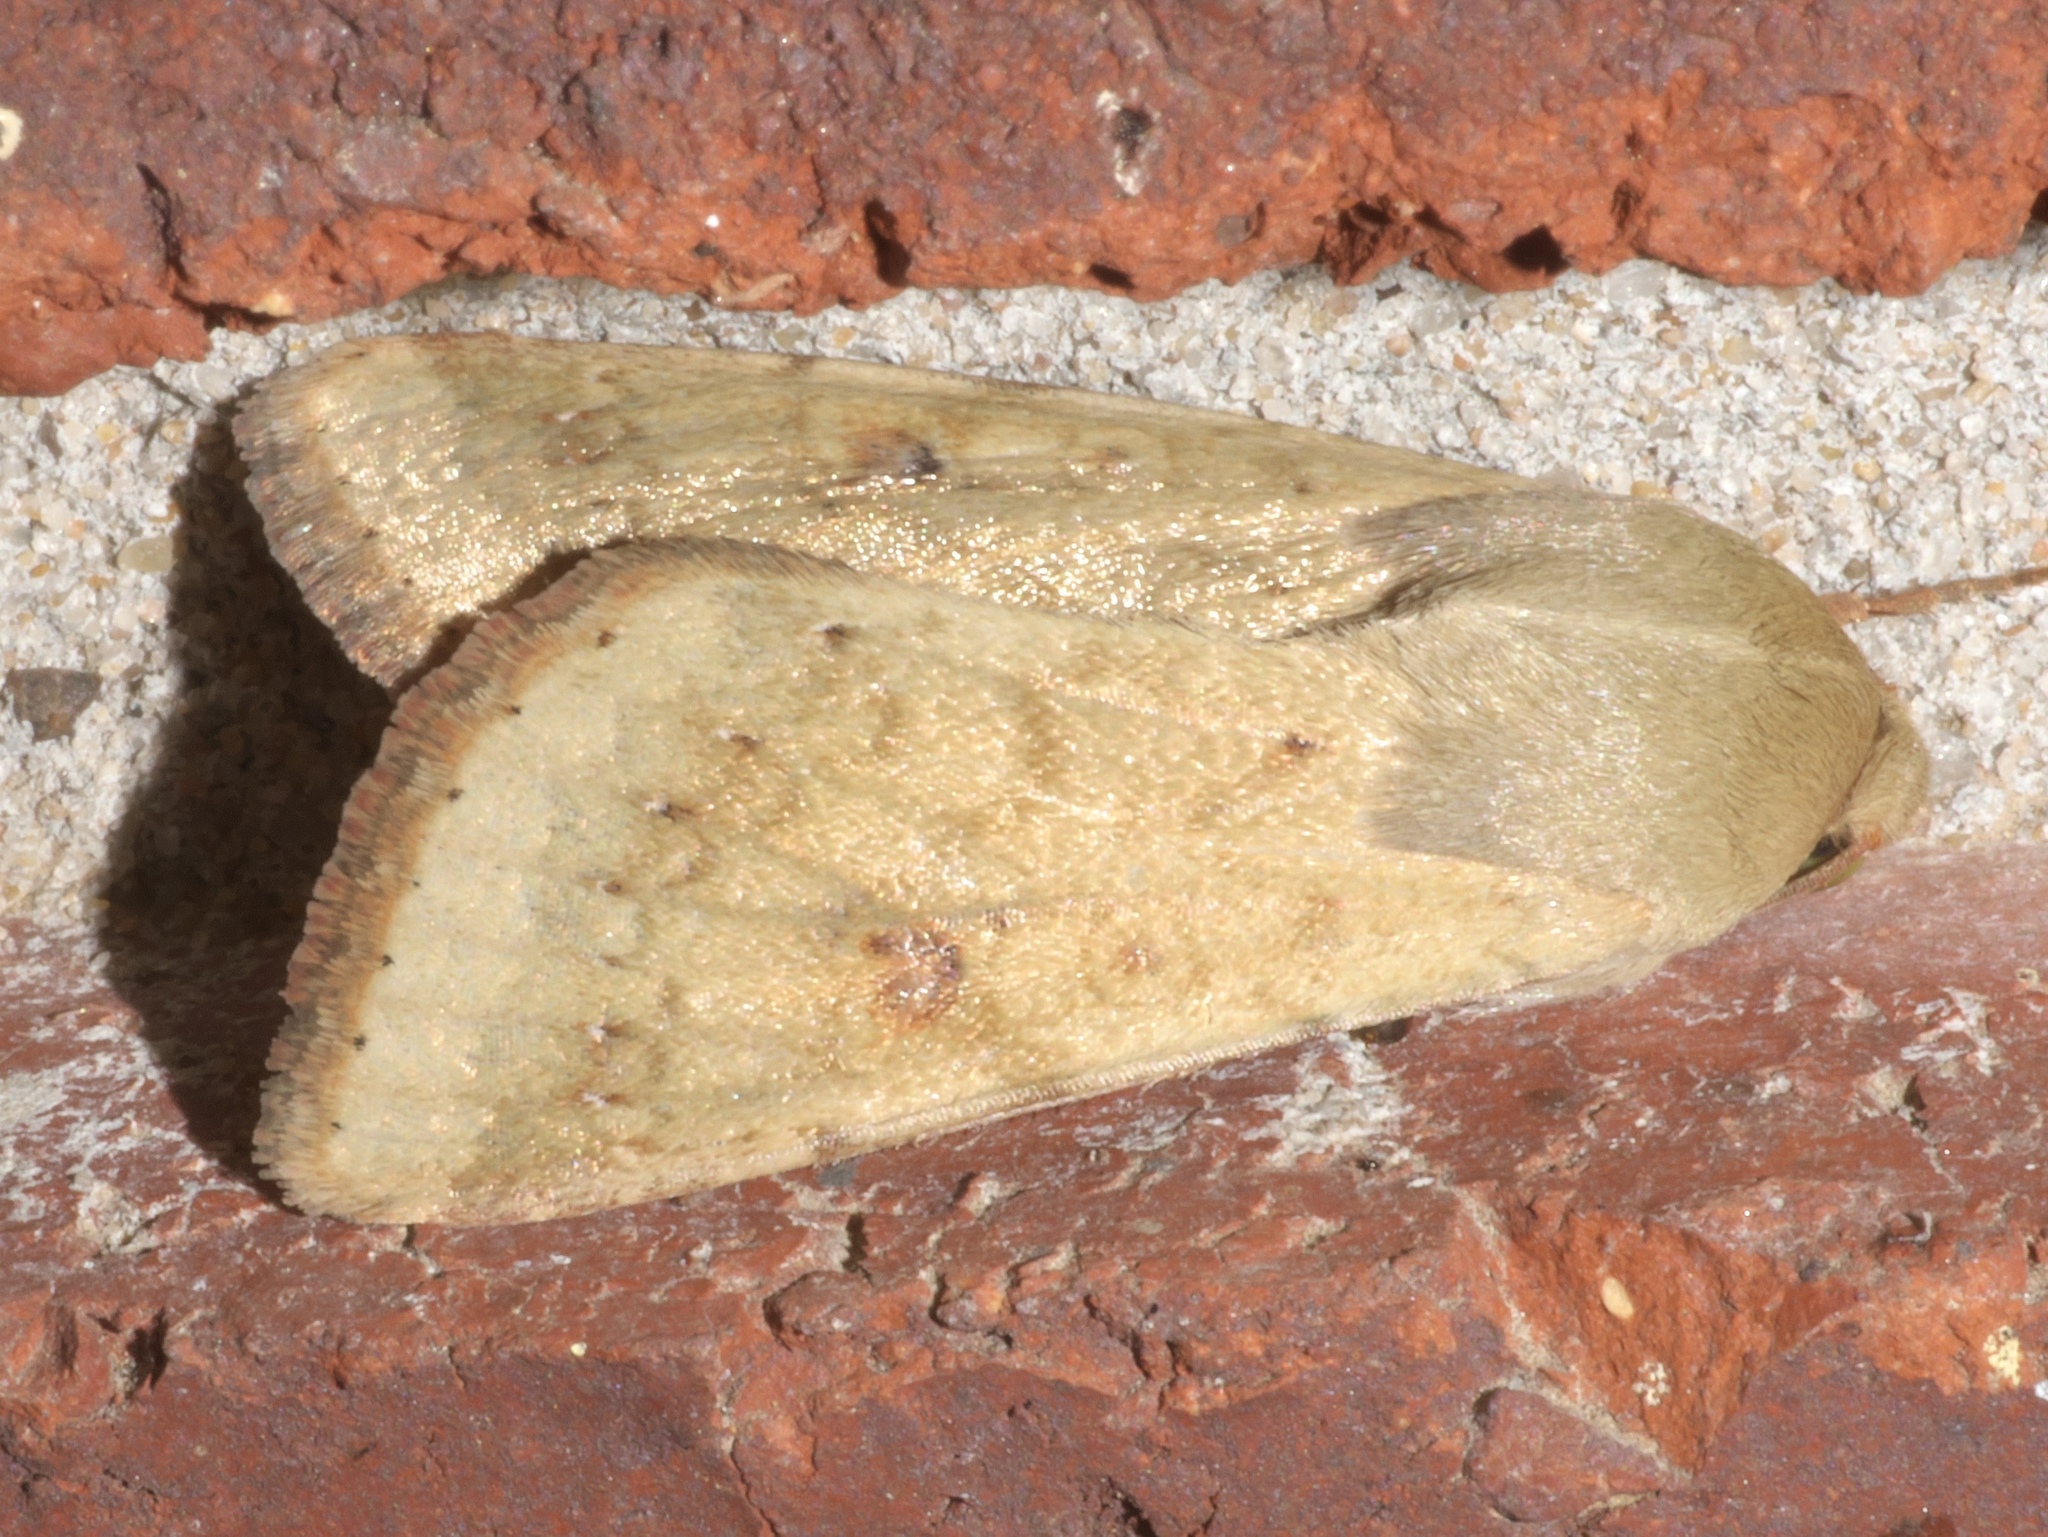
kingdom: Animalia
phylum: Arthropoda
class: Insecta
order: Lepidoptera
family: Noctuidae
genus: Helicoverpa
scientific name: Helicoverpa zea
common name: Bollworm
